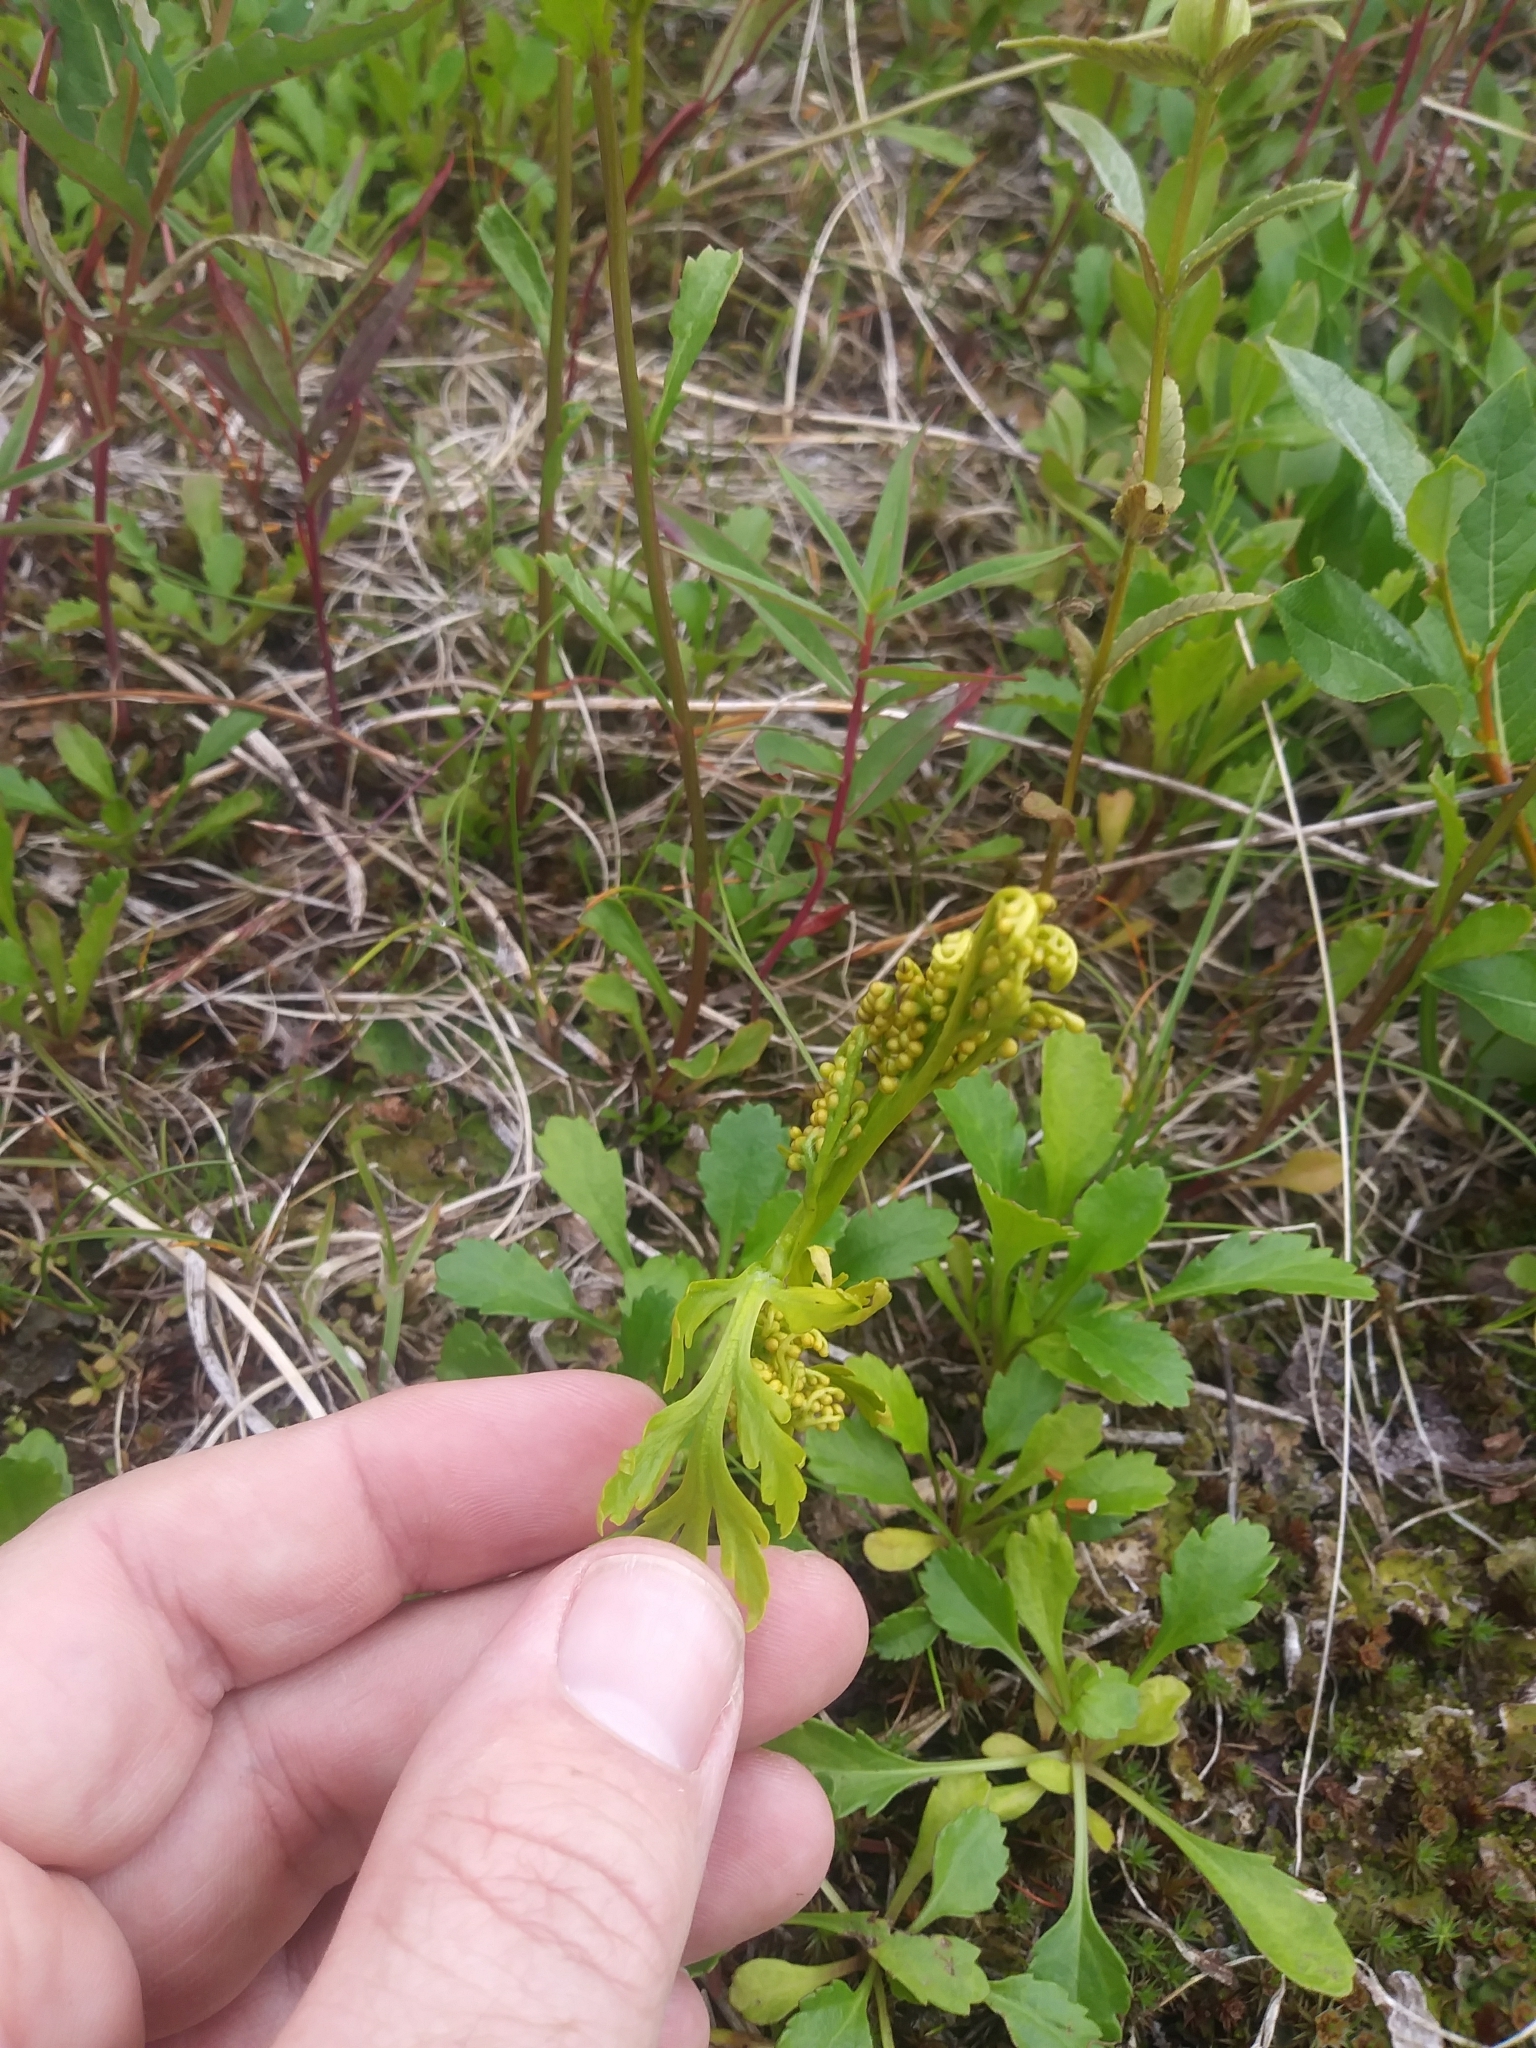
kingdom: Plantae
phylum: Tracheophyta
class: Polypodiopsida
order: Ophioglossales
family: Ophioglossaceae
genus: Botrychium
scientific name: Botrychium lanceolatum
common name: Lance-leaved moonwort
